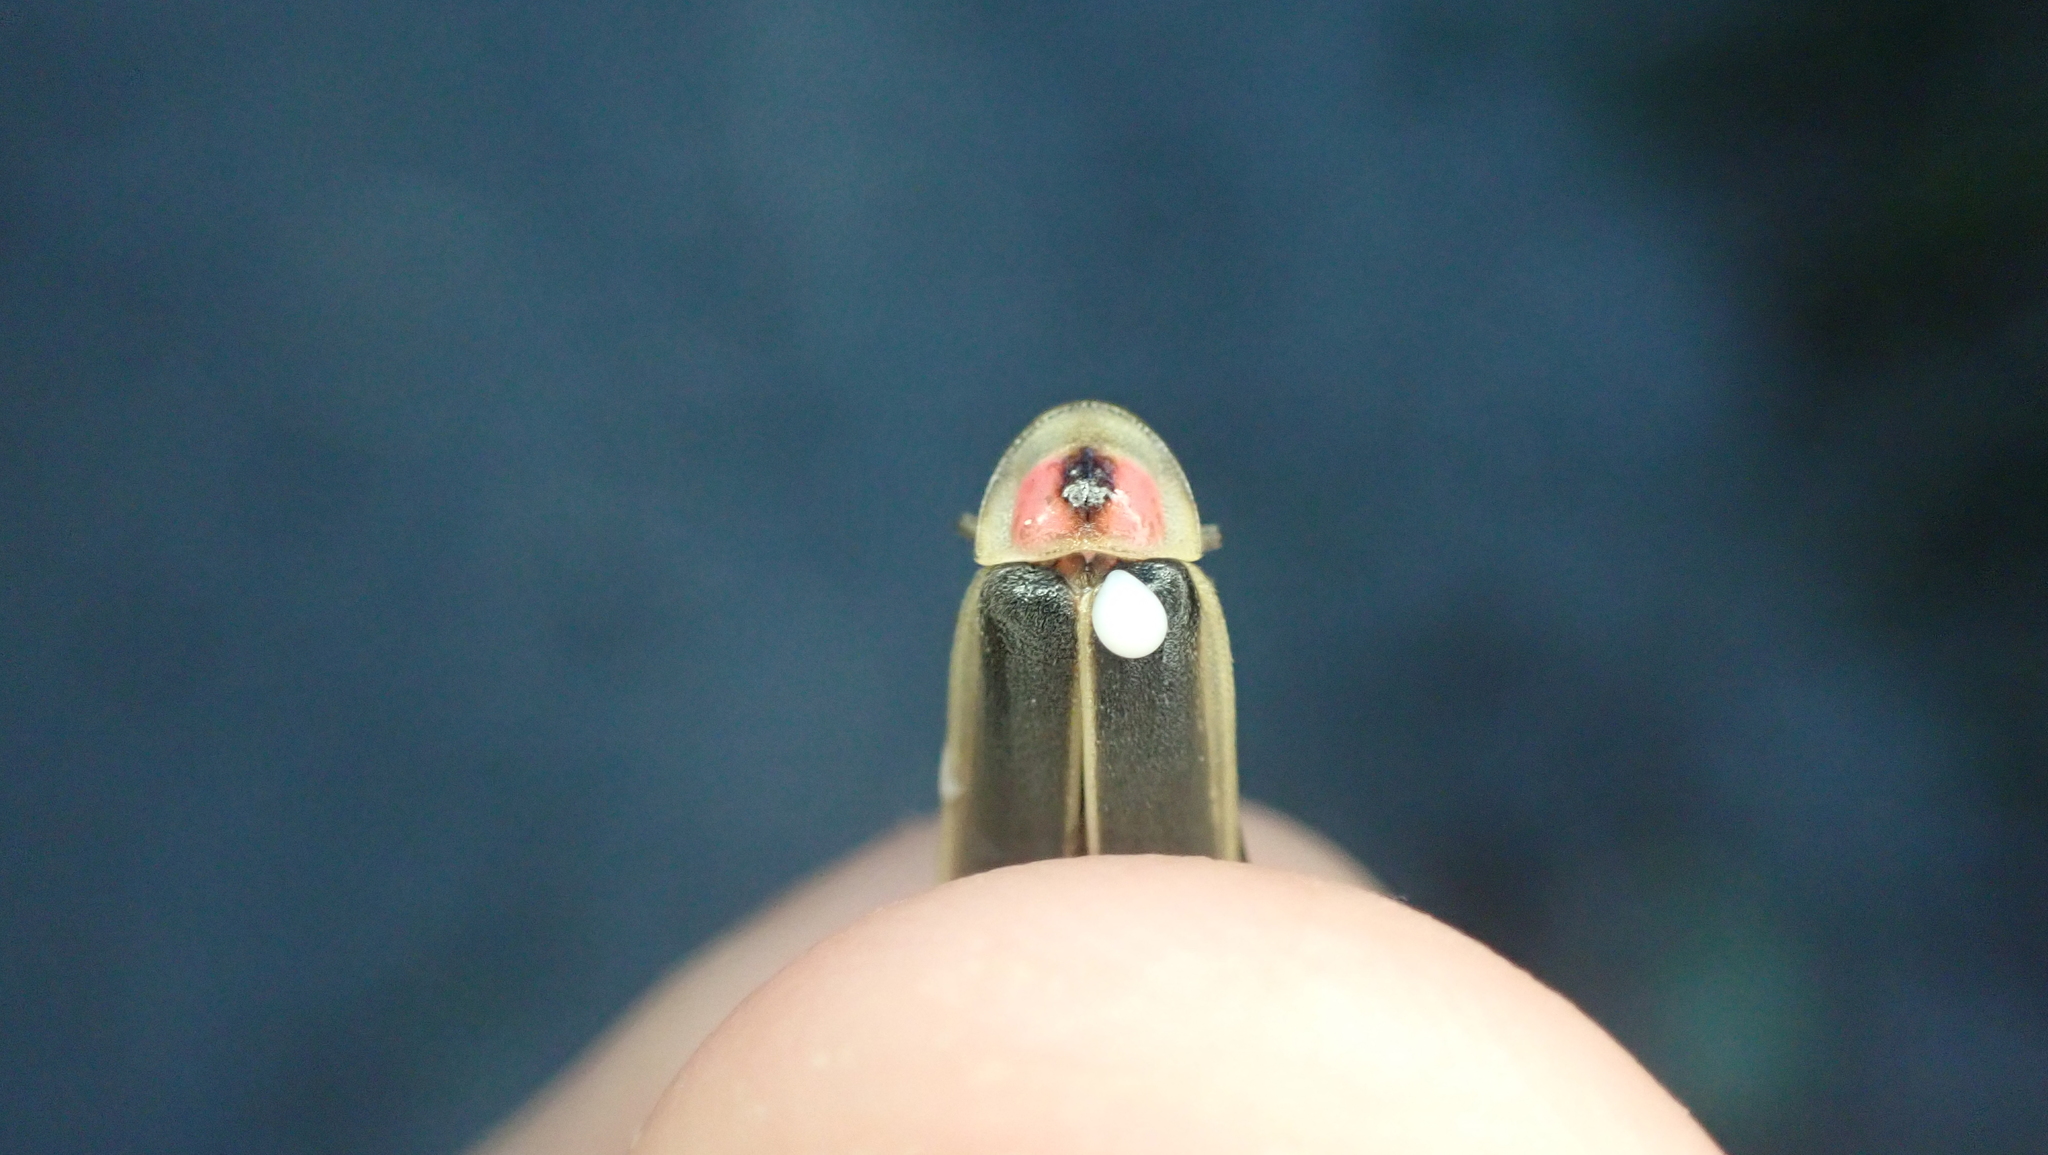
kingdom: Animalia
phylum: Arthropoda
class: Insecta
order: Coleoptera
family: Lampyridae
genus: Photinus
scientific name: Photinus pyralis
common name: Big dipper firefly
